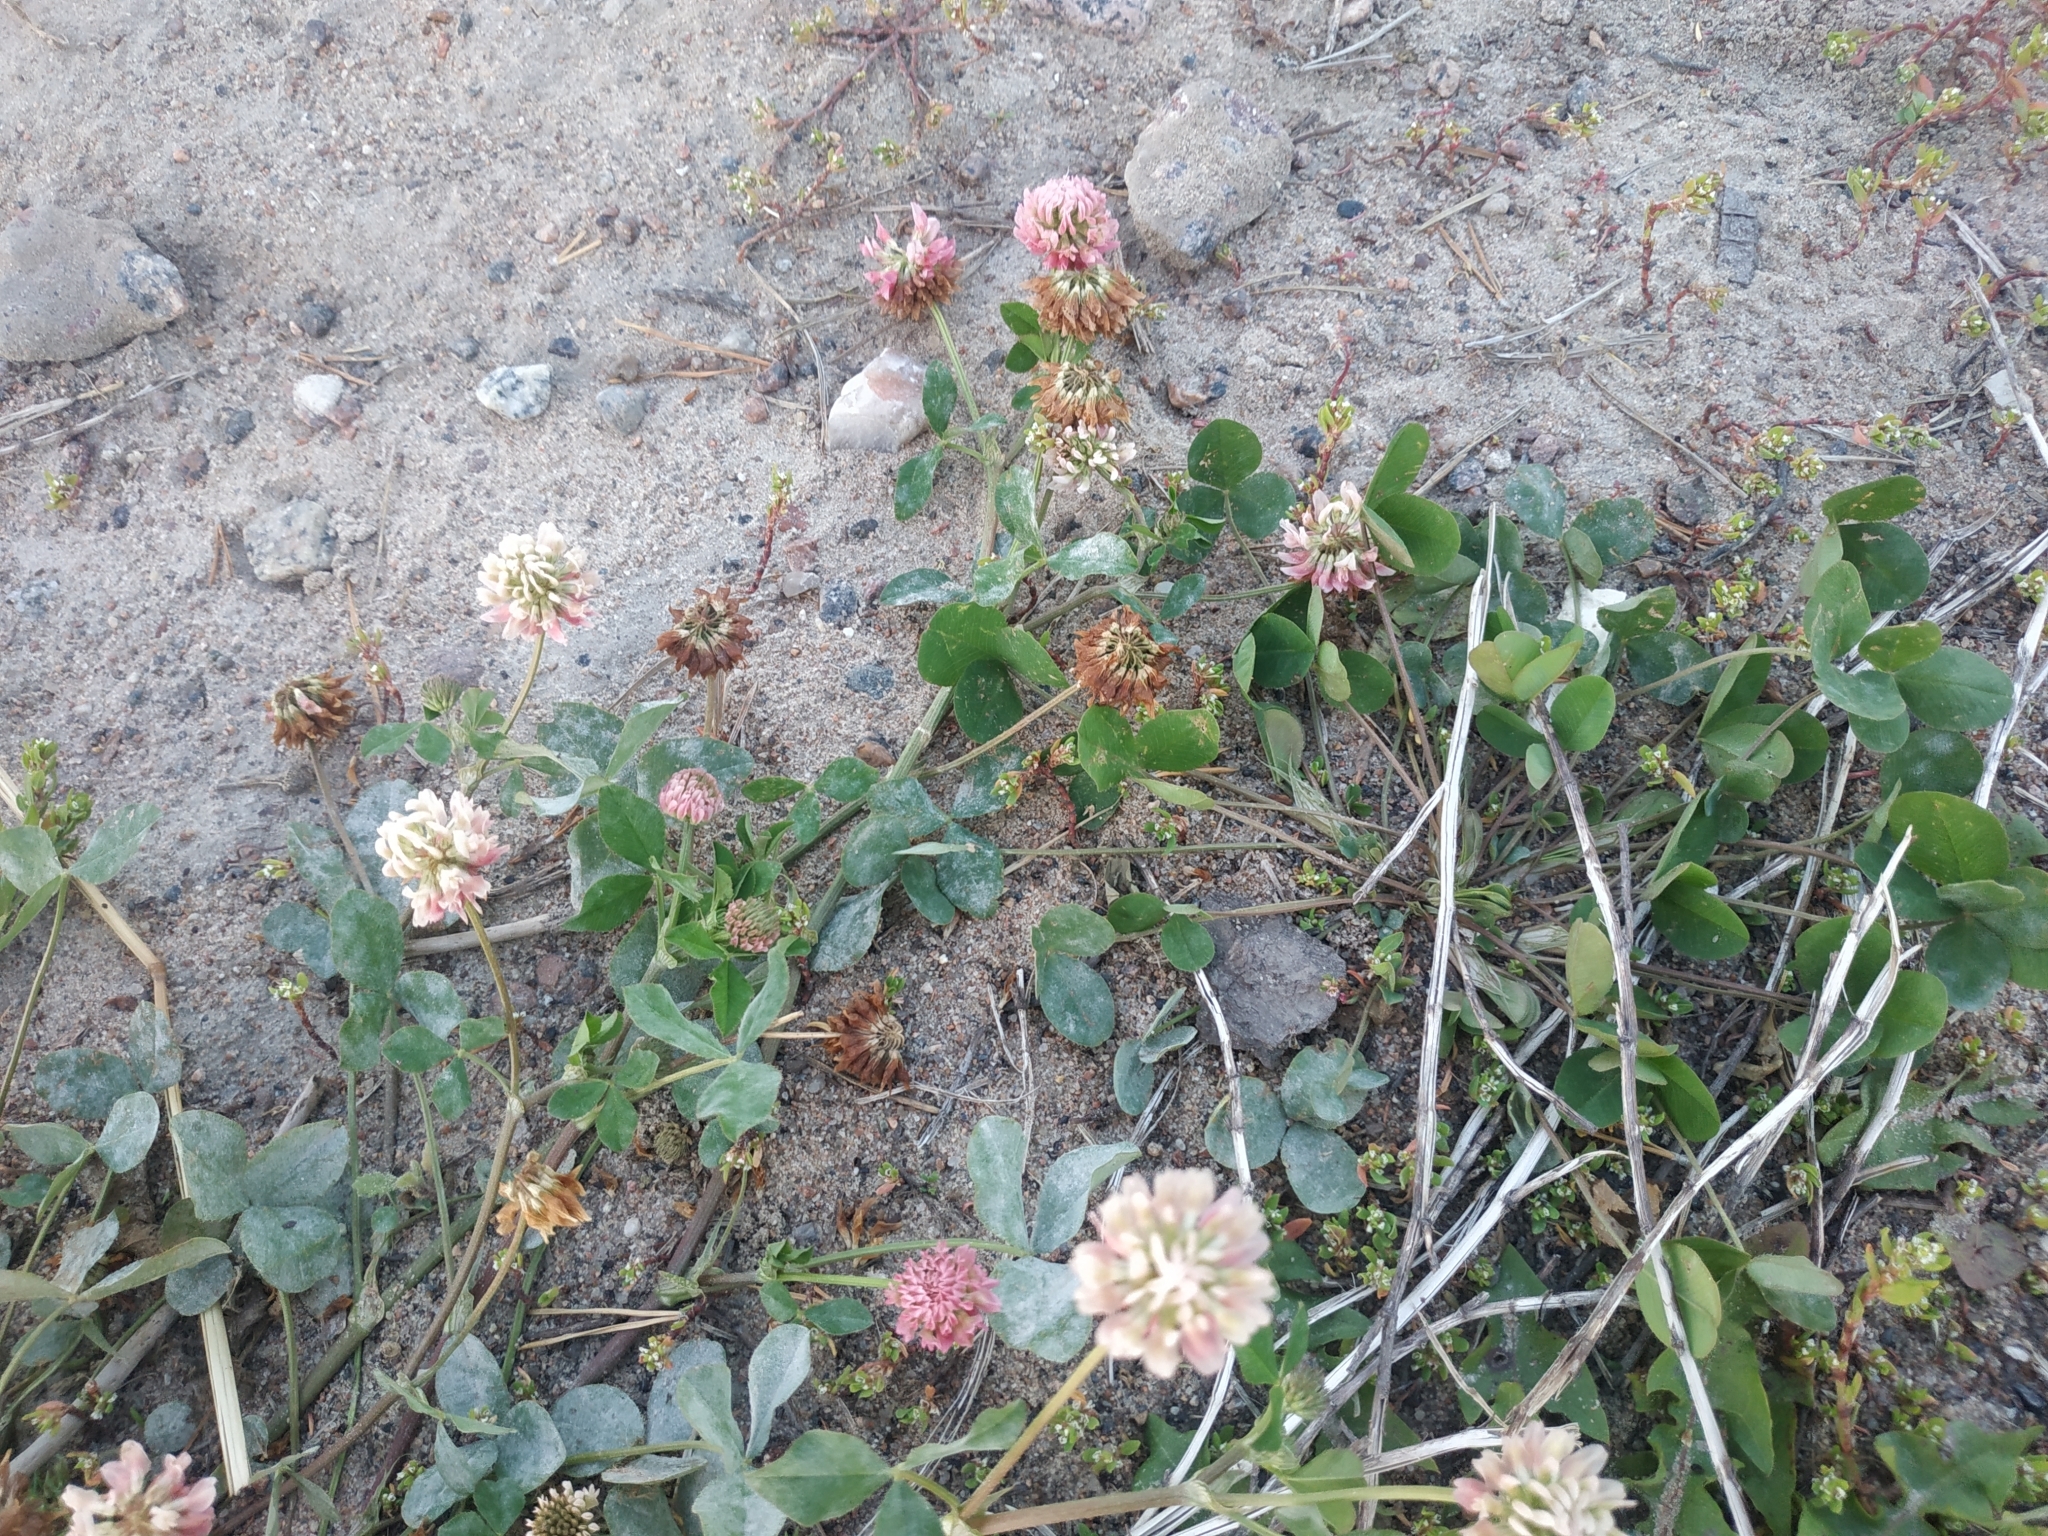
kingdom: Plantae
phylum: Tracheophyta
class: Magnoliopsida
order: Fabales
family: Fabaceae
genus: Trifolium
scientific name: Trifolium hybridum
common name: Alsike clover
